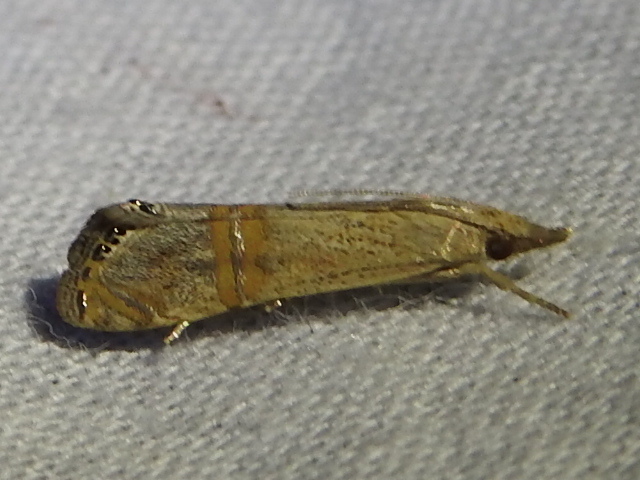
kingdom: Animalia
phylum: Arthropoda
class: Insecta
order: Lepidoptera
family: Crambidae
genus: Euchromius
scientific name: Euchromius ocellea
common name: Necklace veneer moth
